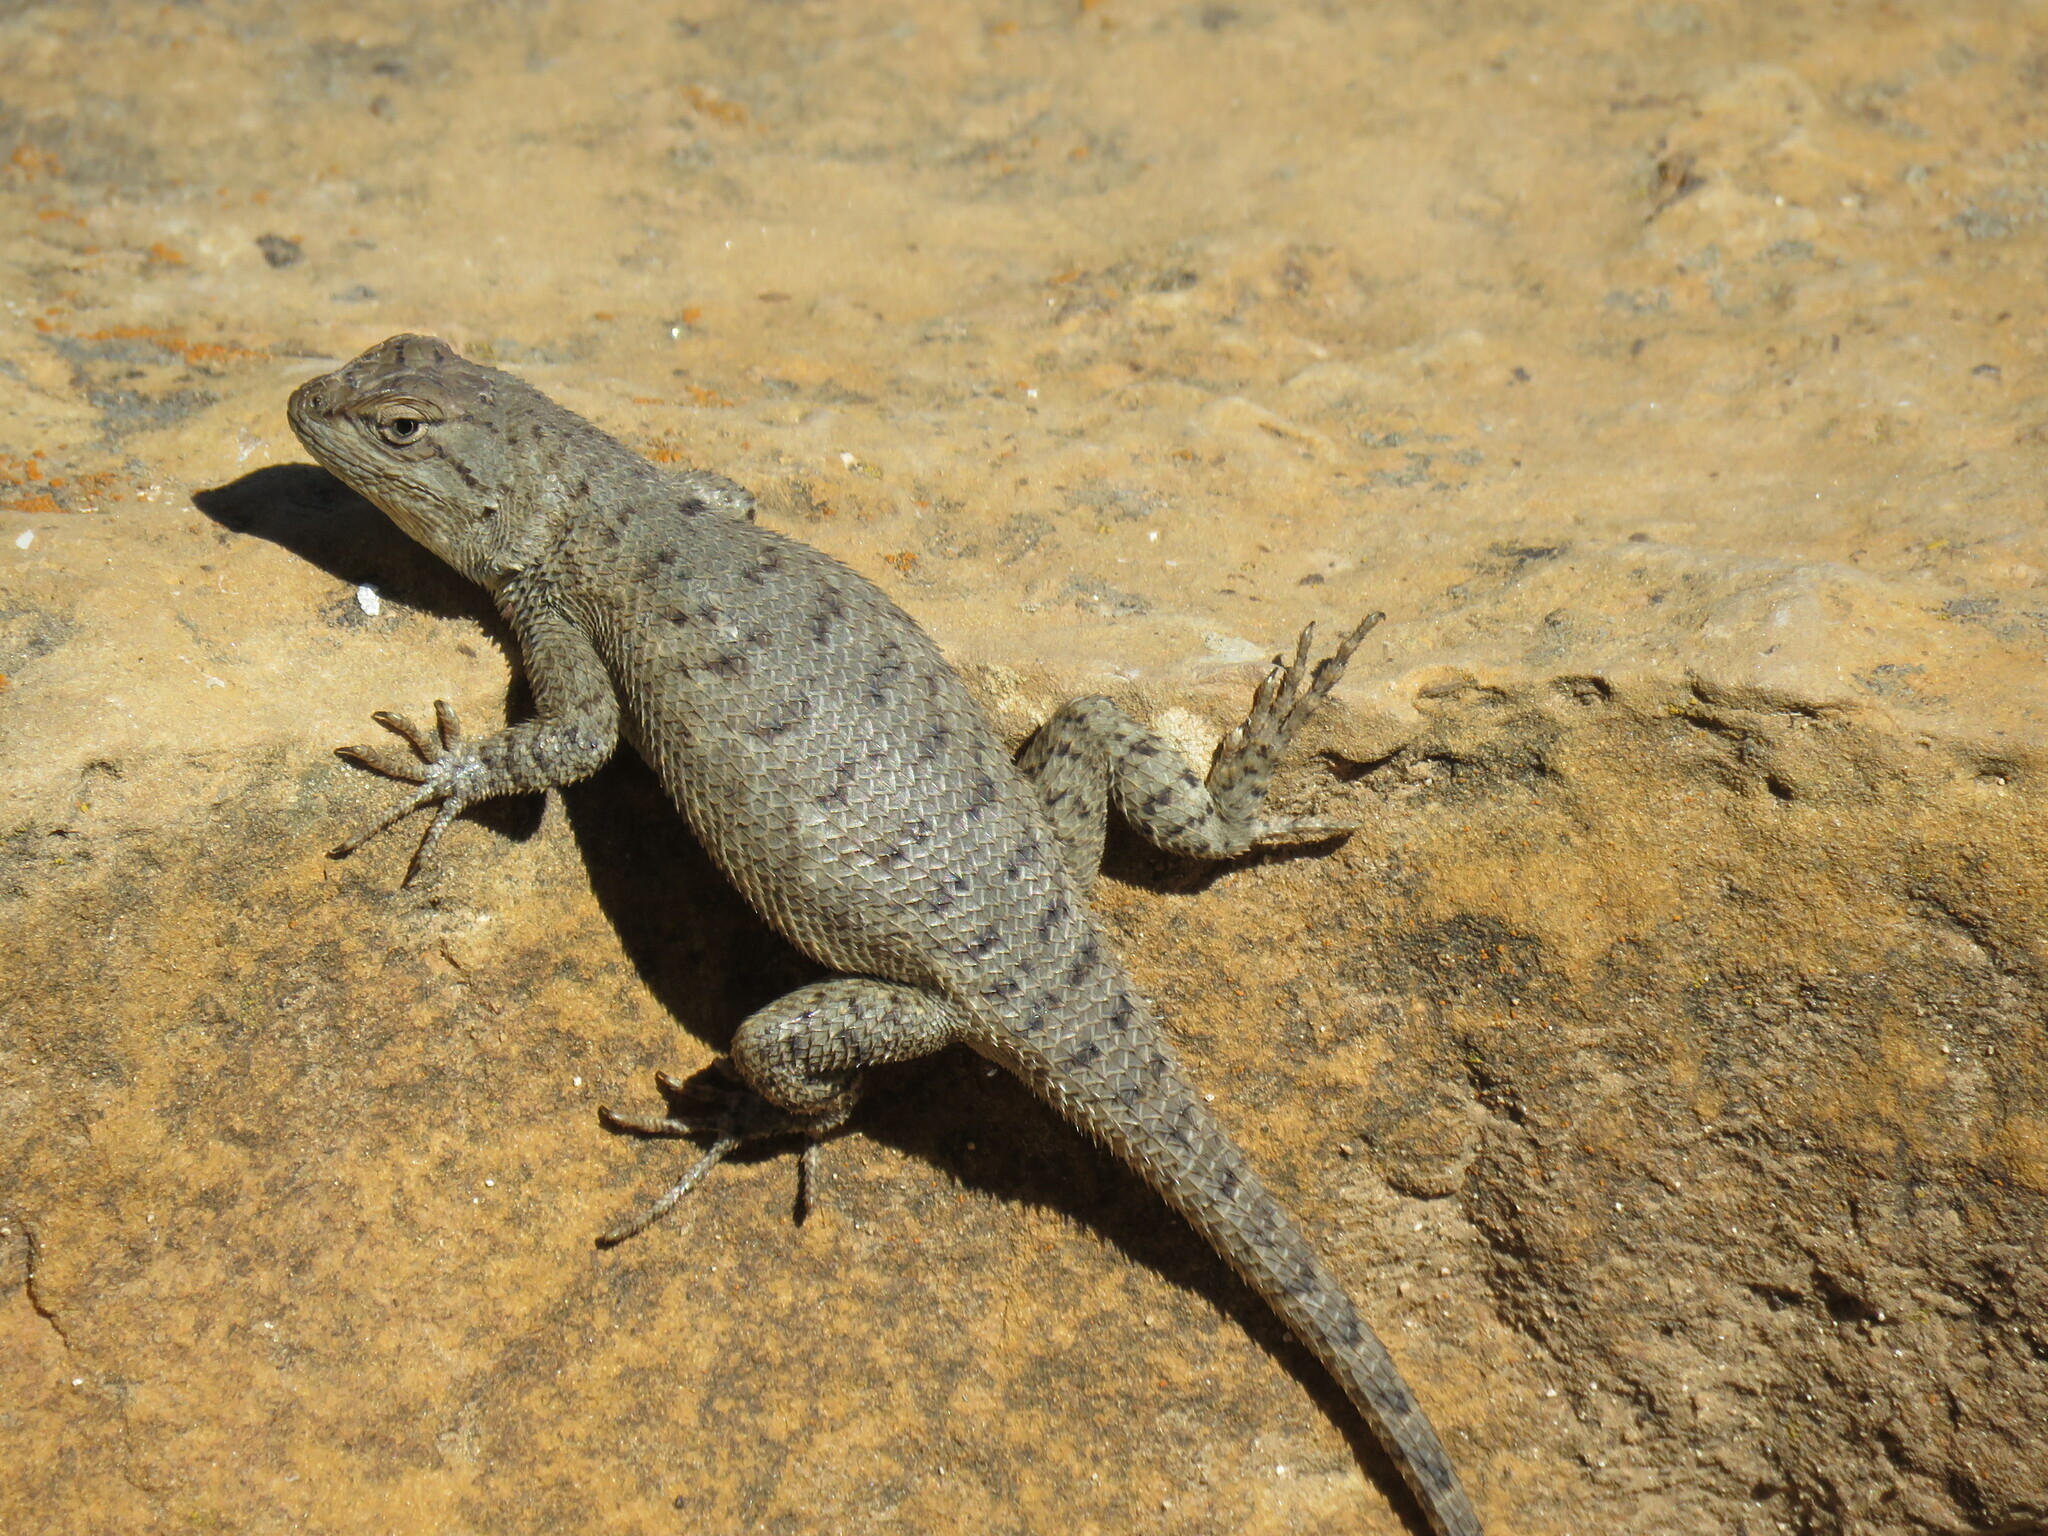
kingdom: Animalia
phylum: Chordata
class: Squamata
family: Phrynosomatidae
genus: Sceloporus
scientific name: Sceloporus tristichus
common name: Plateau fence lizard
